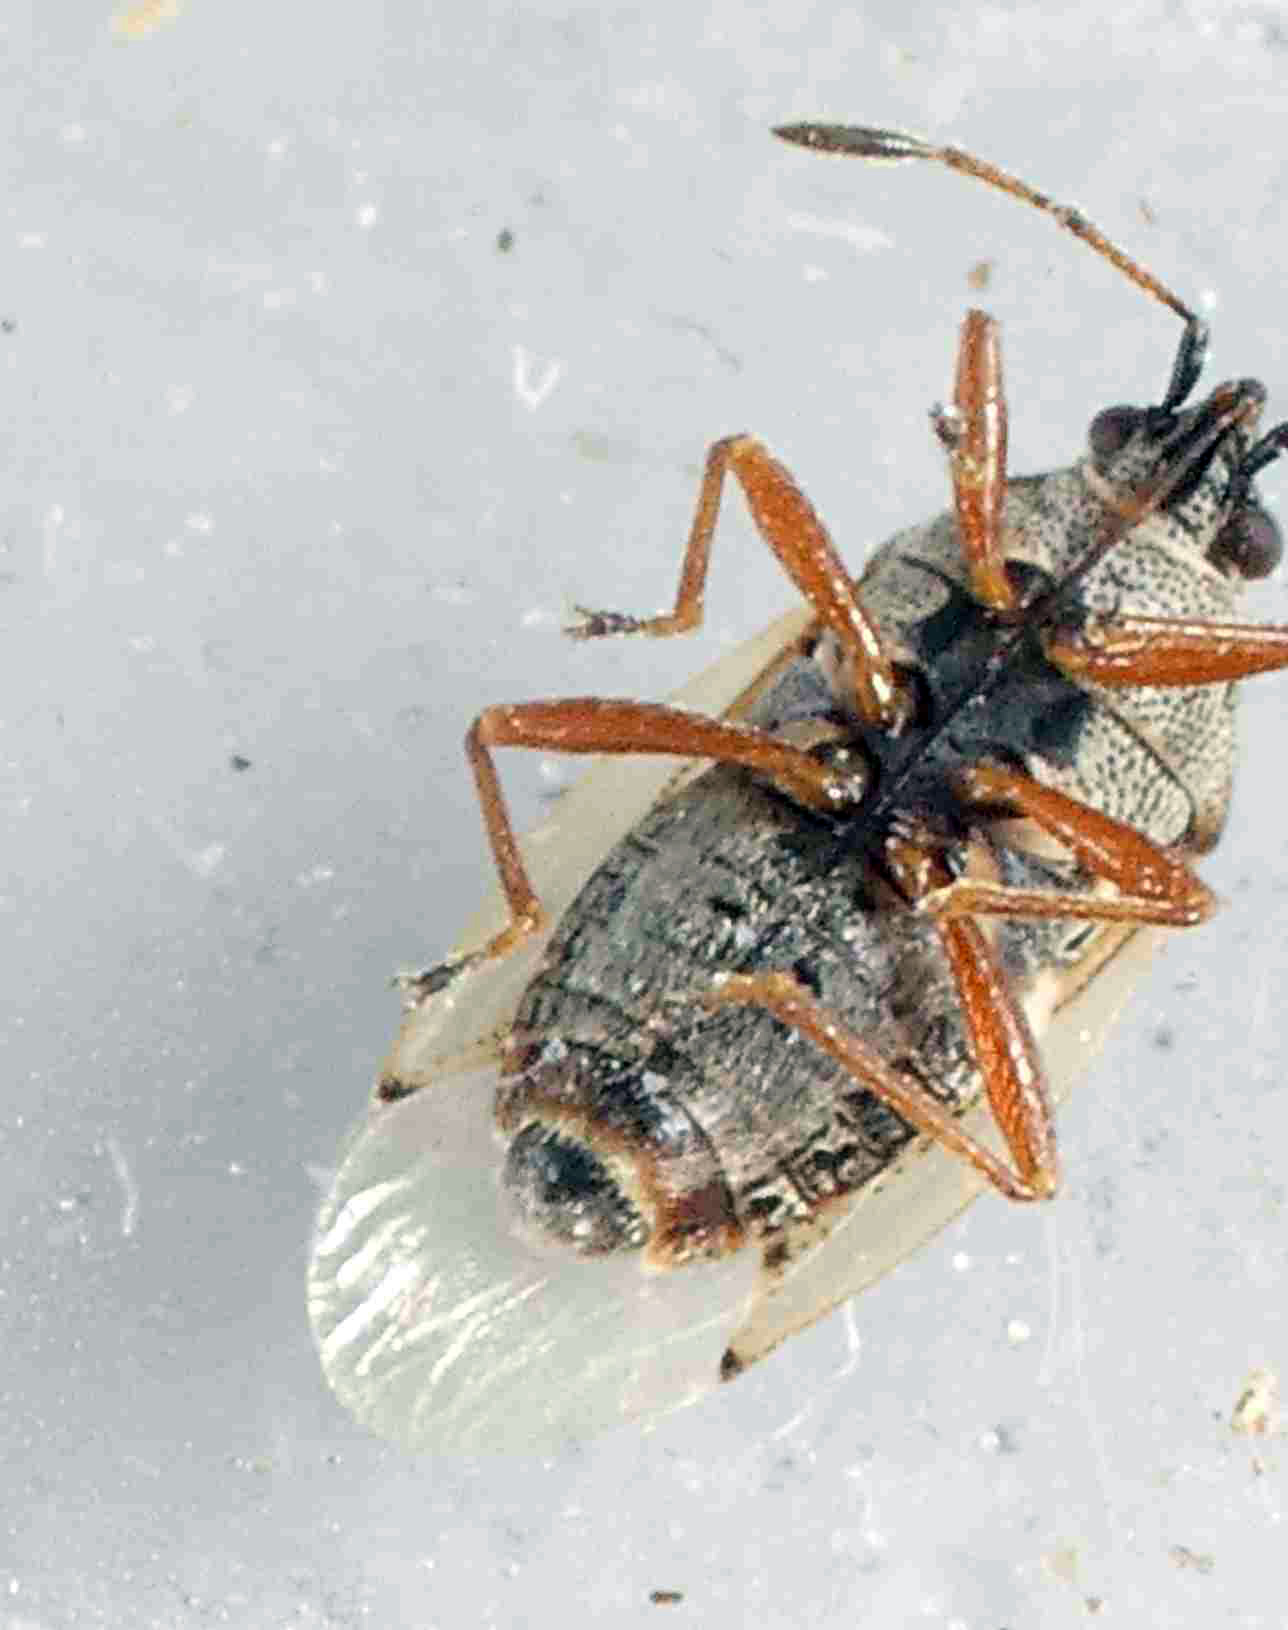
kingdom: Animalia
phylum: Arthropoda
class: Insecta
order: Hemiptera
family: Lygaeidae
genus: Kleidocerys
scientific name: Kleidocerys resedae
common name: Birch catkin bug
